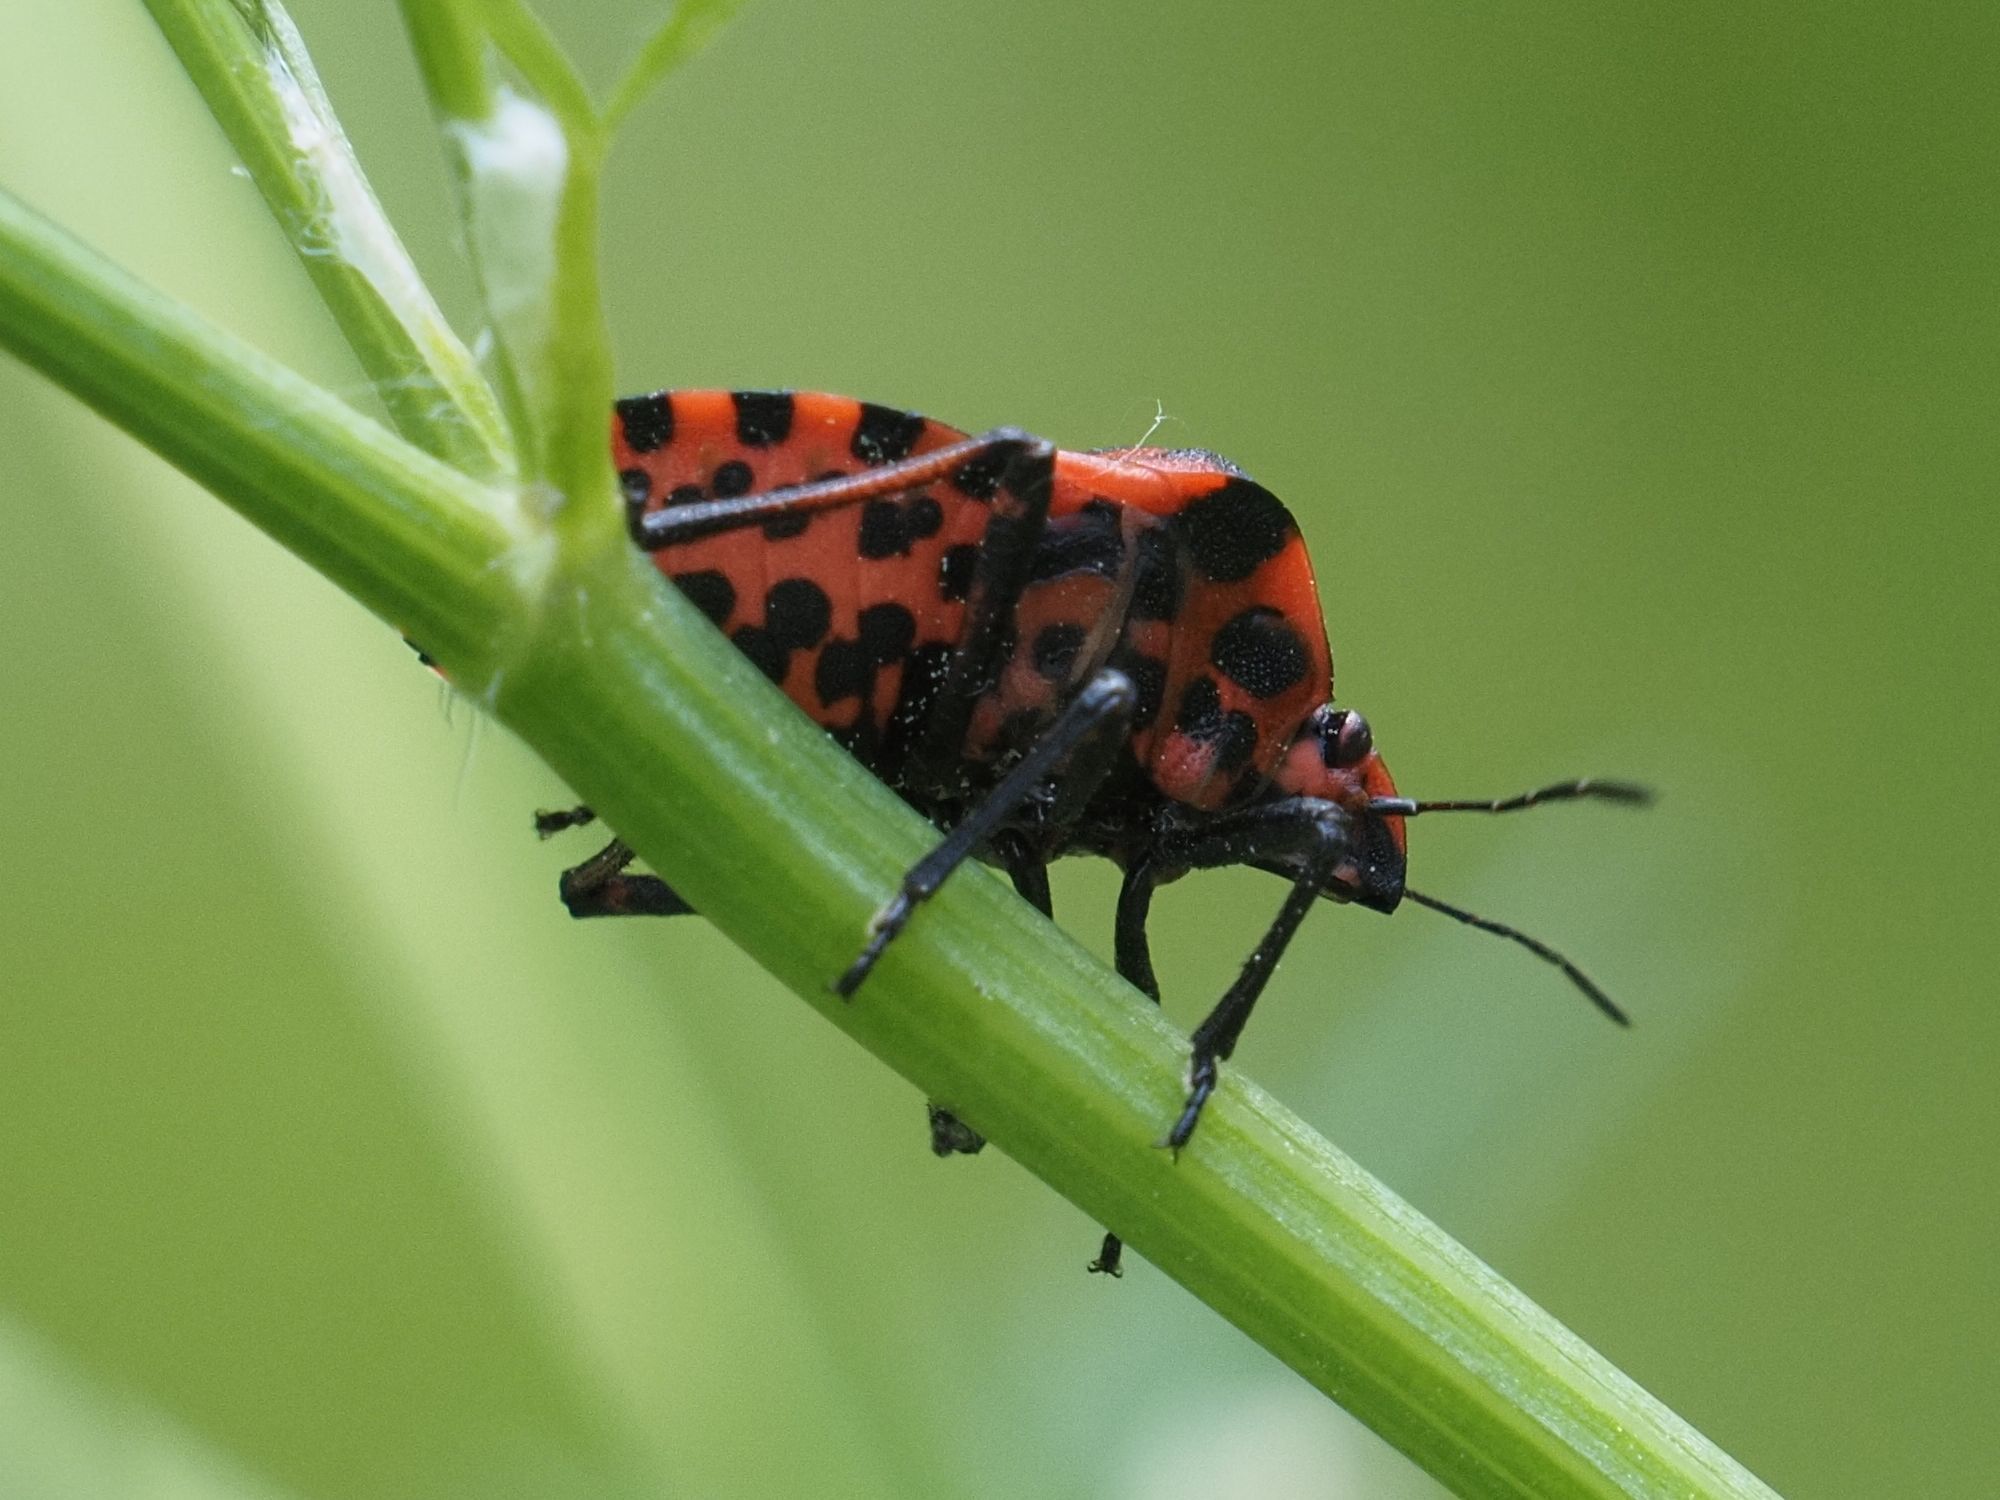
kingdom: Animalia
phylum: Arthropoda
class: Insecta
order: Hemiptera
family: Pentatomidae
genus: Graphosoma
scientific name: Graphosoma italicum
